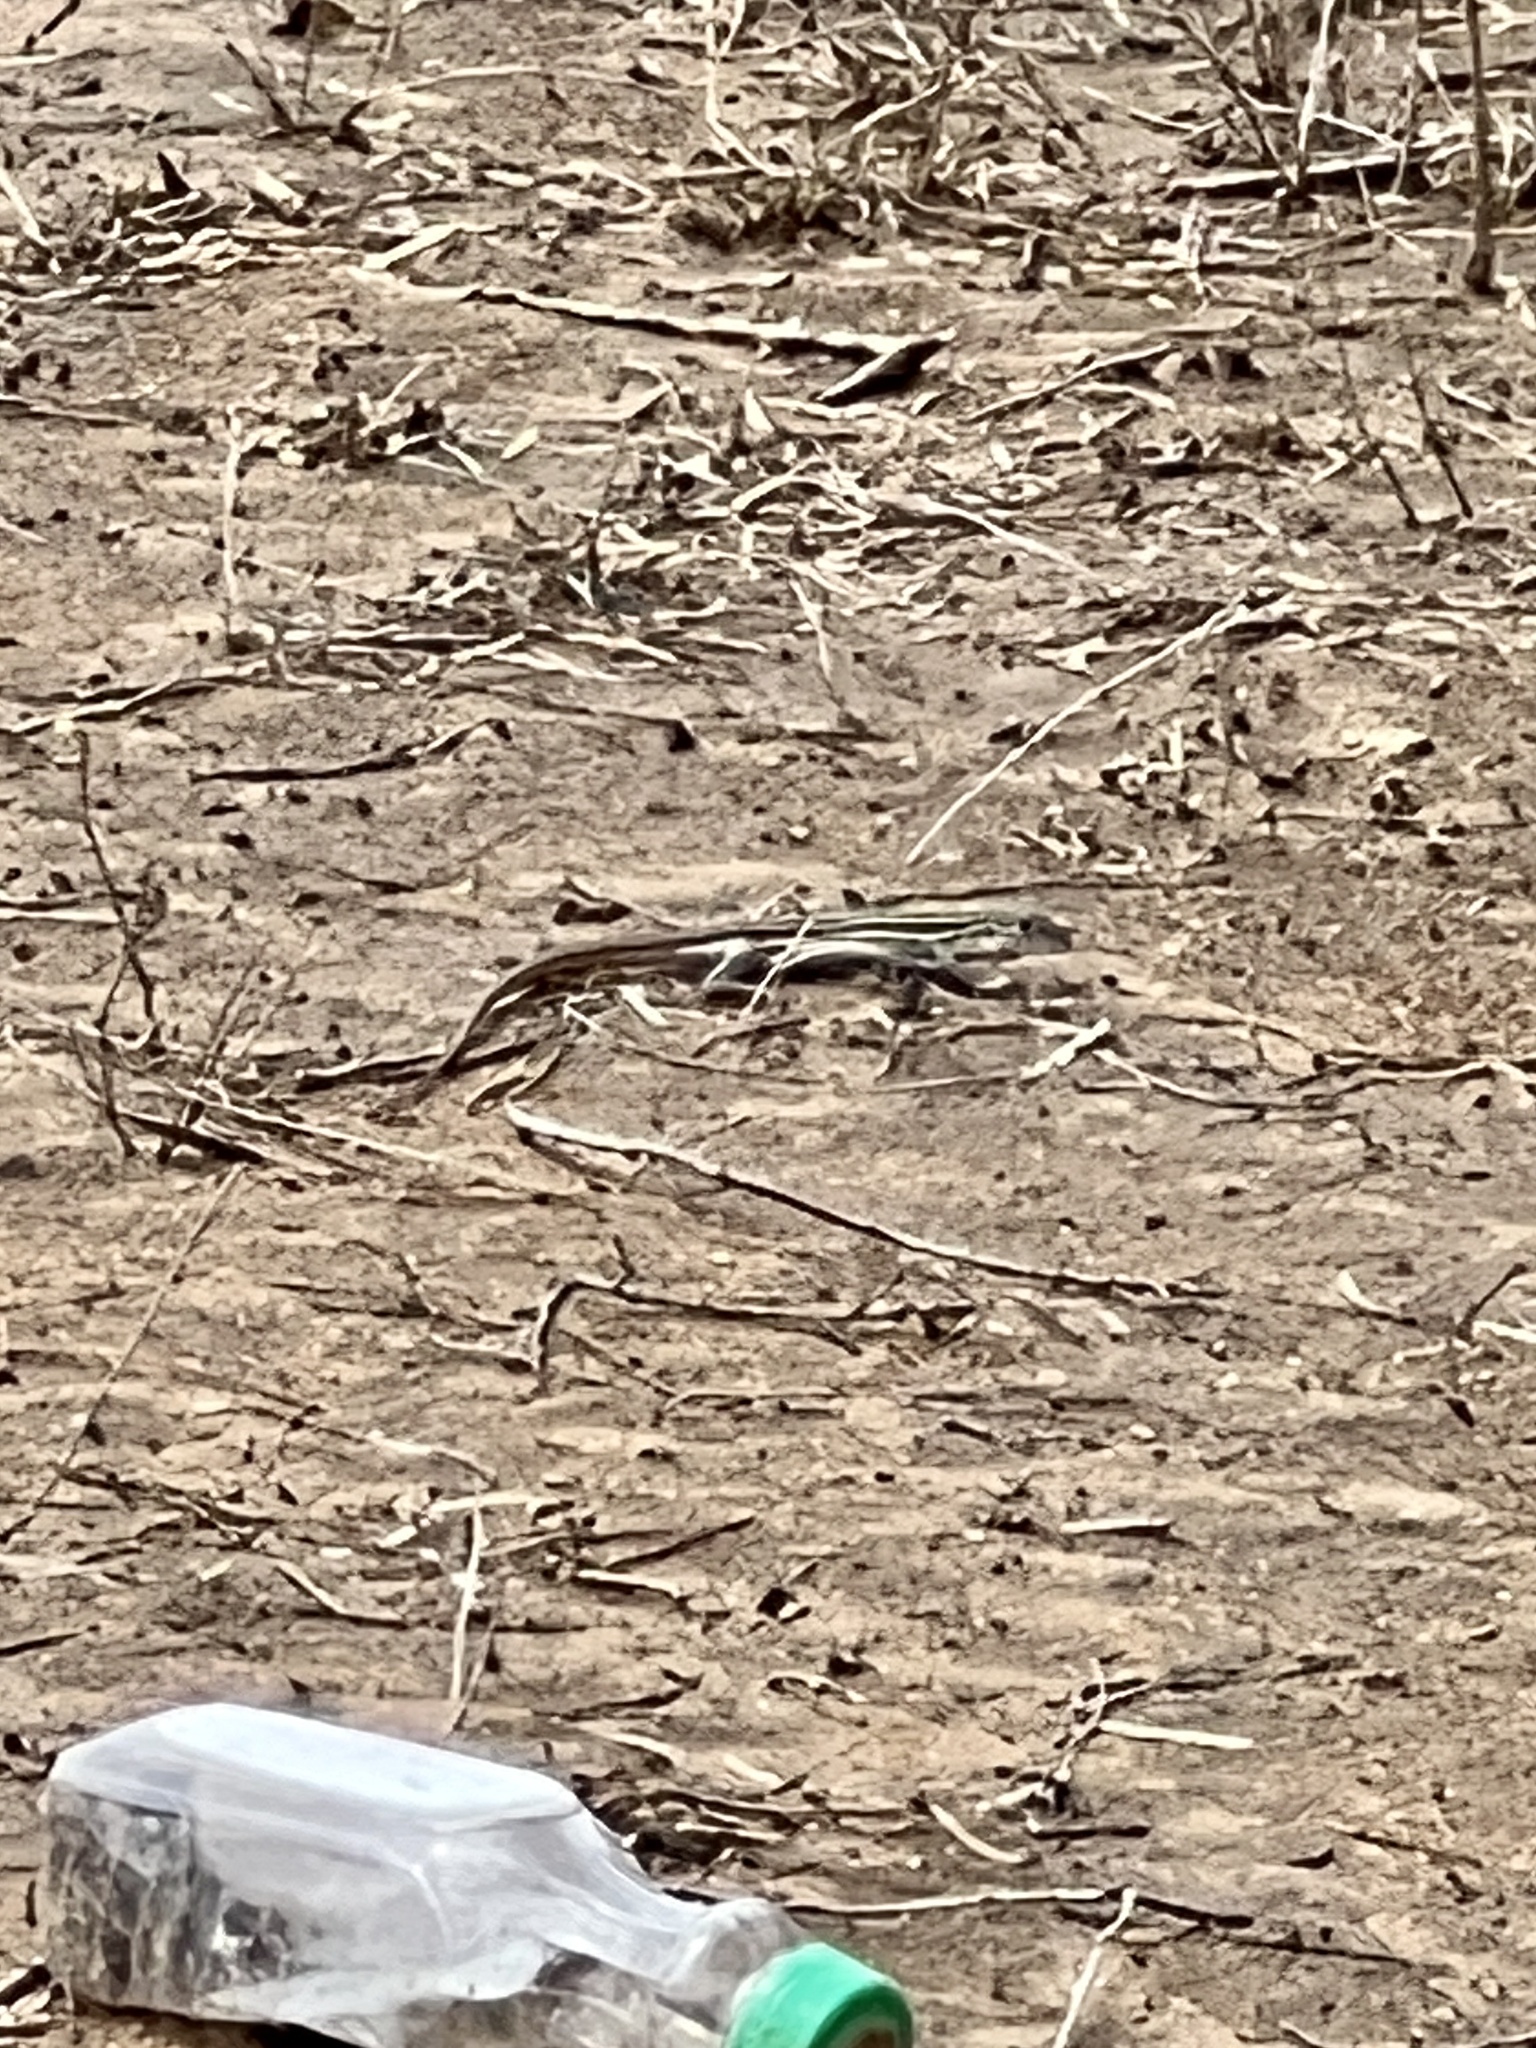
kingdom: Animalia
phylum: Chordata
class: Squamata
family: Teiidae
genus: Aspidoscelis
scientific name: Aspidoscelis gularis
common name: Eastern spotted whiptail
